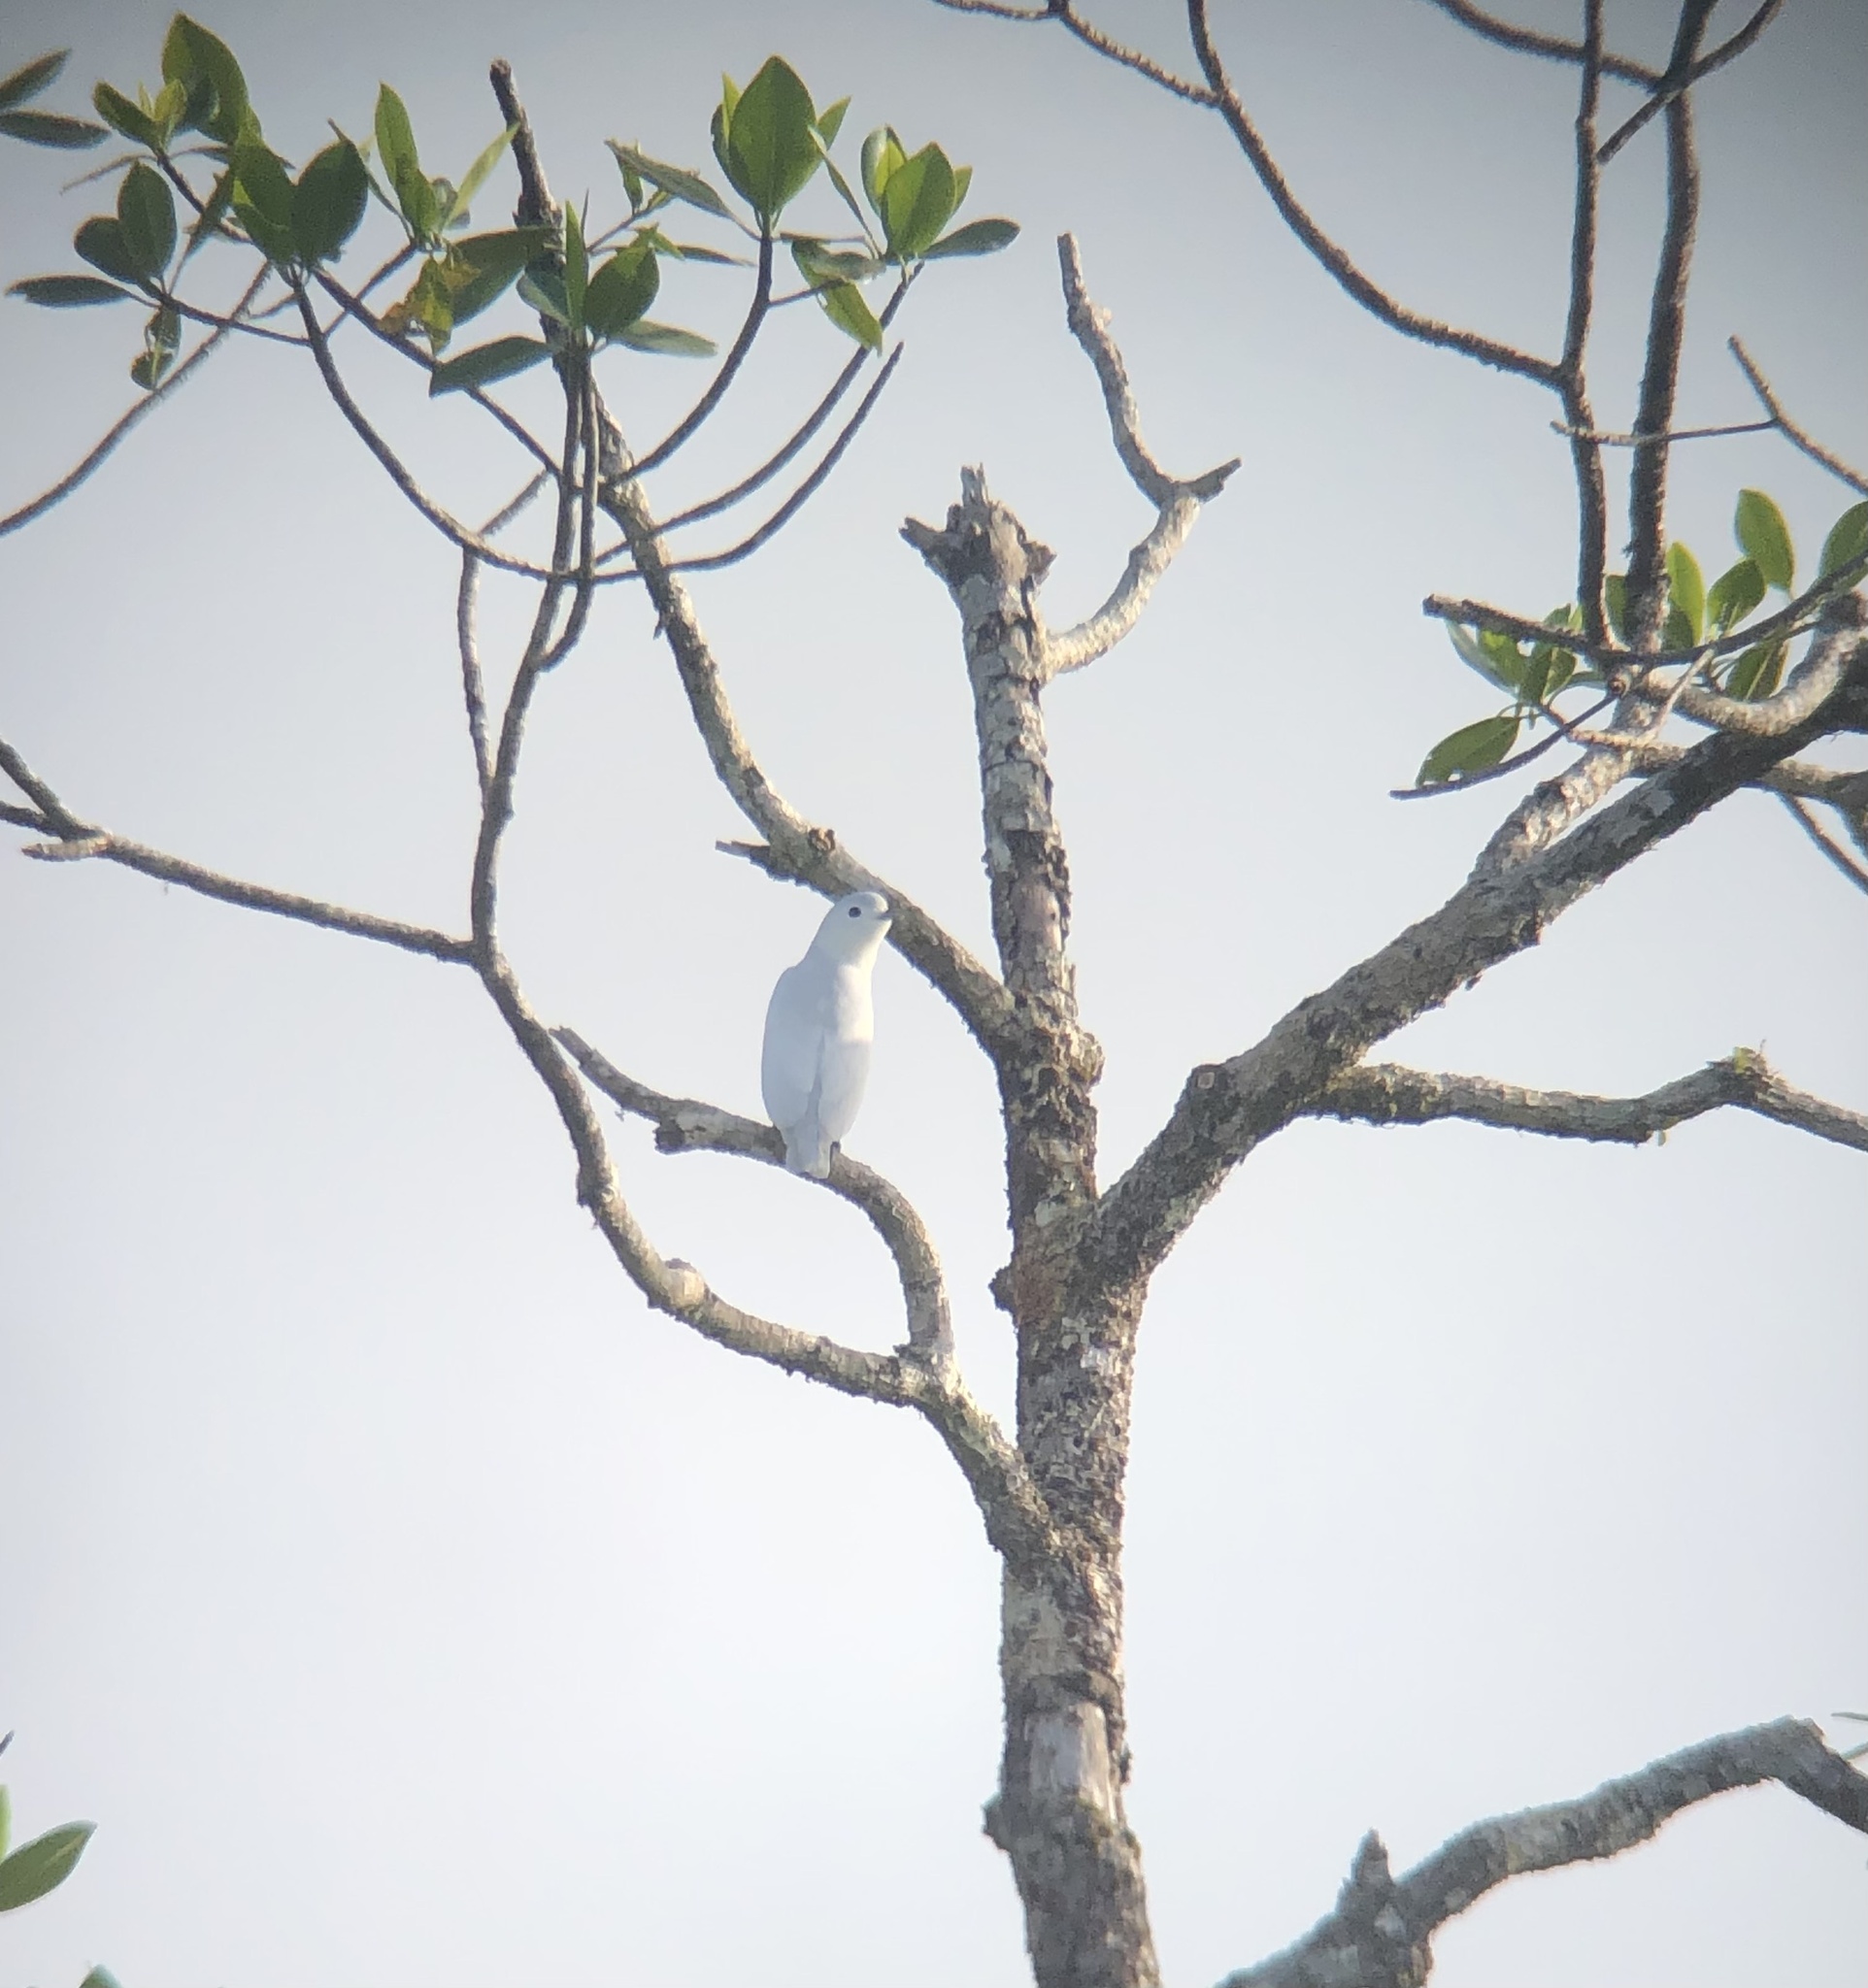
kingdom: Animalia
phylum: Chordata
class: Aves
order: Passeriformes
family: Cotingidae
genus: Carpodectes
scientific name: Carpodectes nitidus
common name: Snowy cotinga
